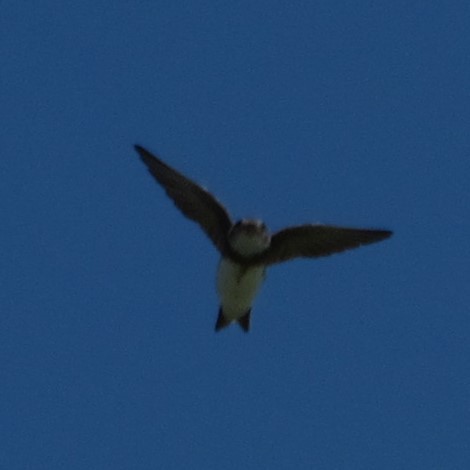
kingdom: Animalia
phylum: Chordata
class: Aves
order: Passeriformes
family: Hirundinidae
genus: Riparia
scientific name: Riparia riparia
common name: Sand martin
